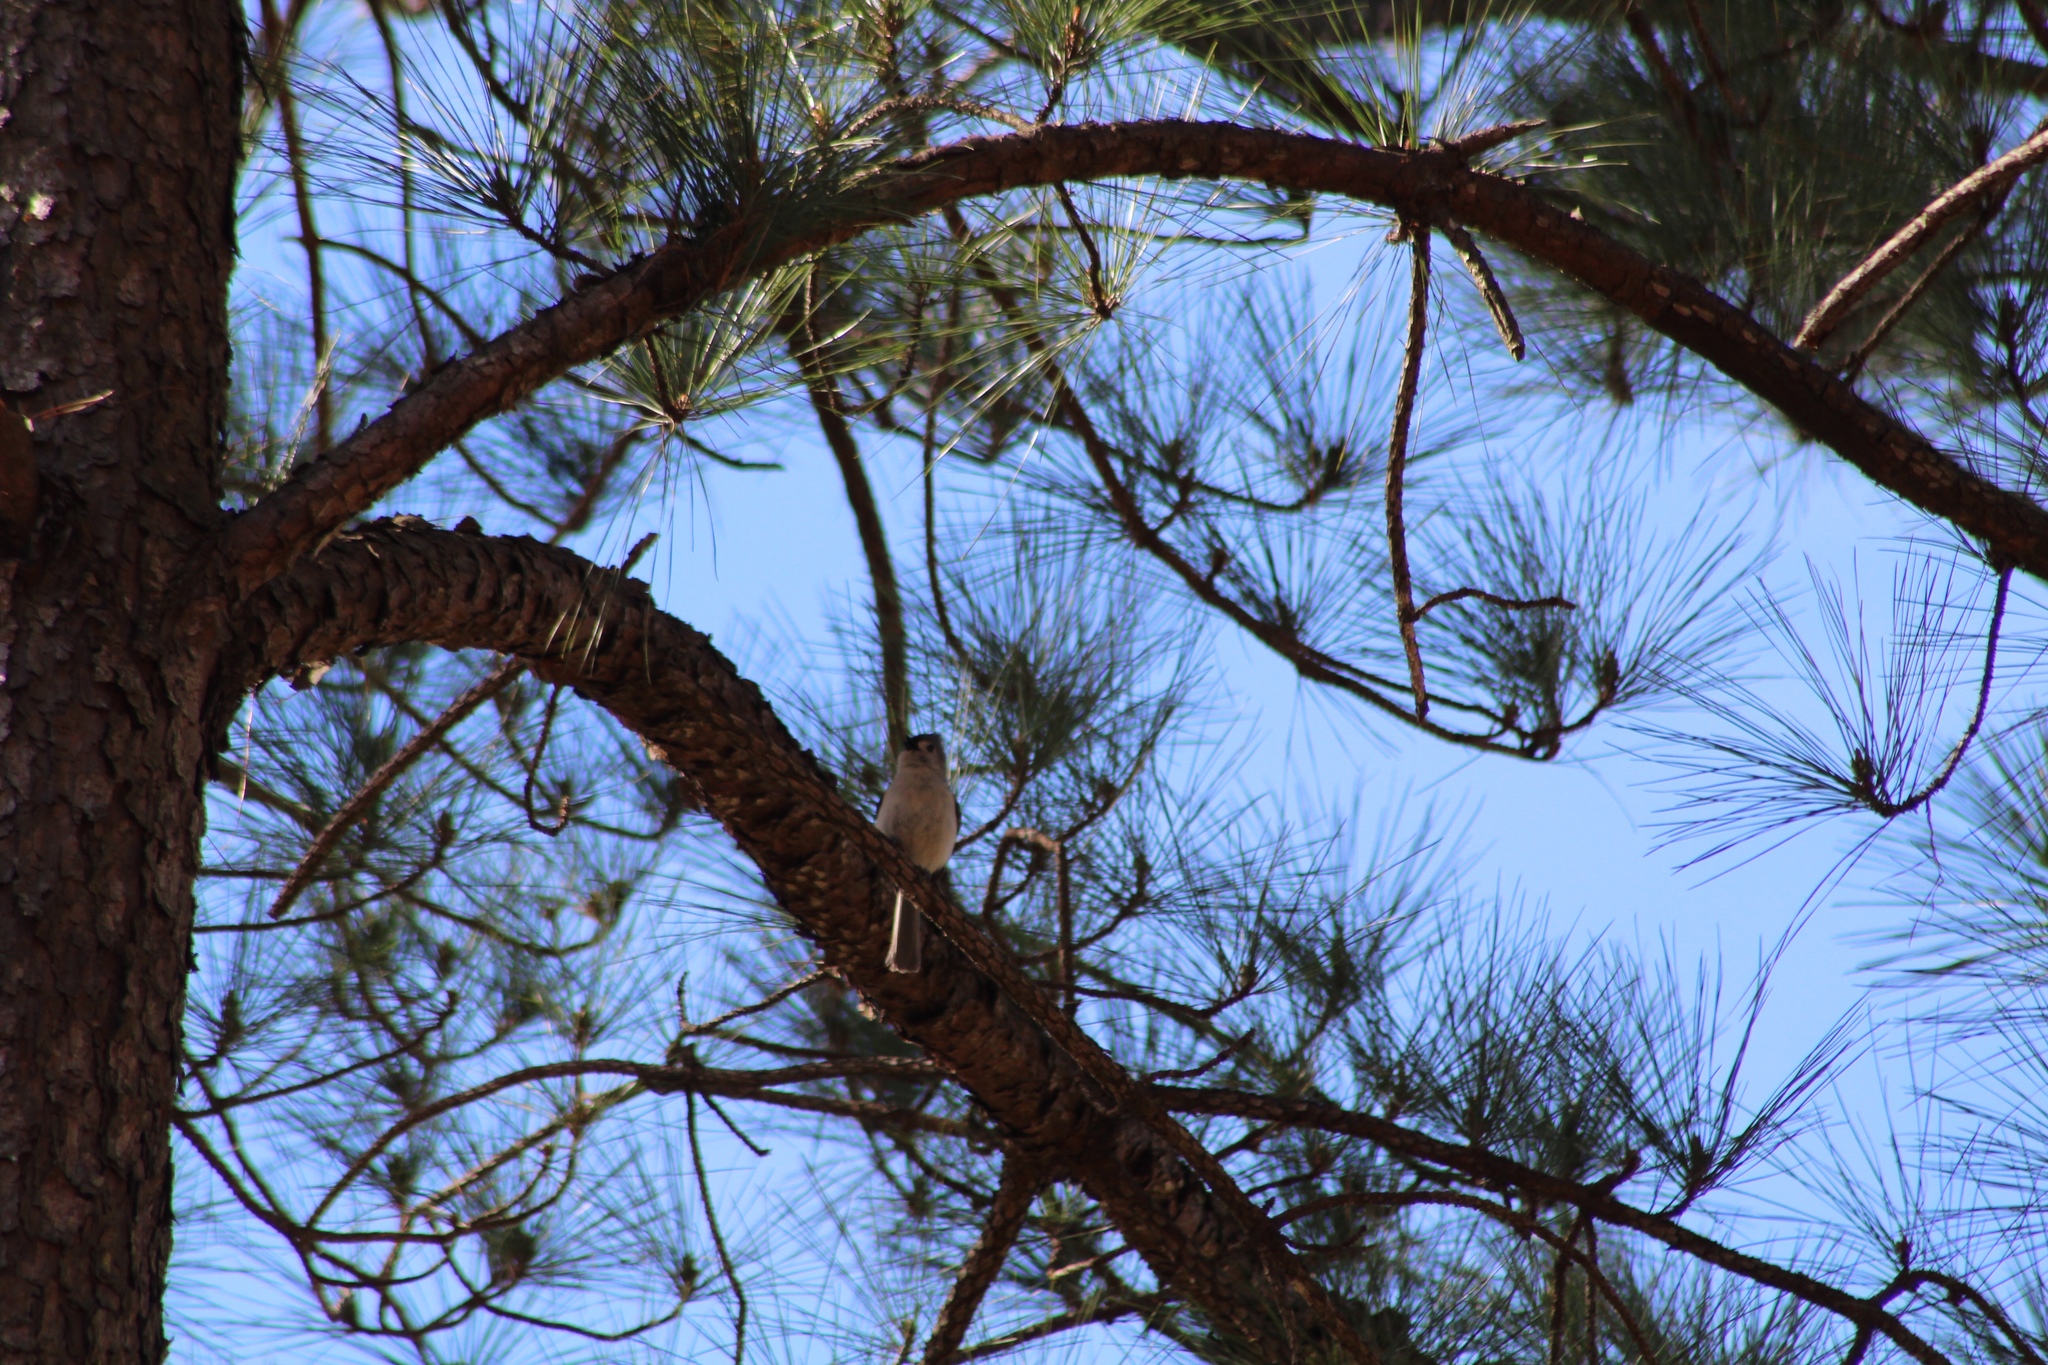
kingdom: Animalia
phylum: Chordata
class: Aves
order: Passeriformes
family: Paridae
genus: Baeolophus
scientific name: Baeolophus bicolor
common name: Tufted titmouse
